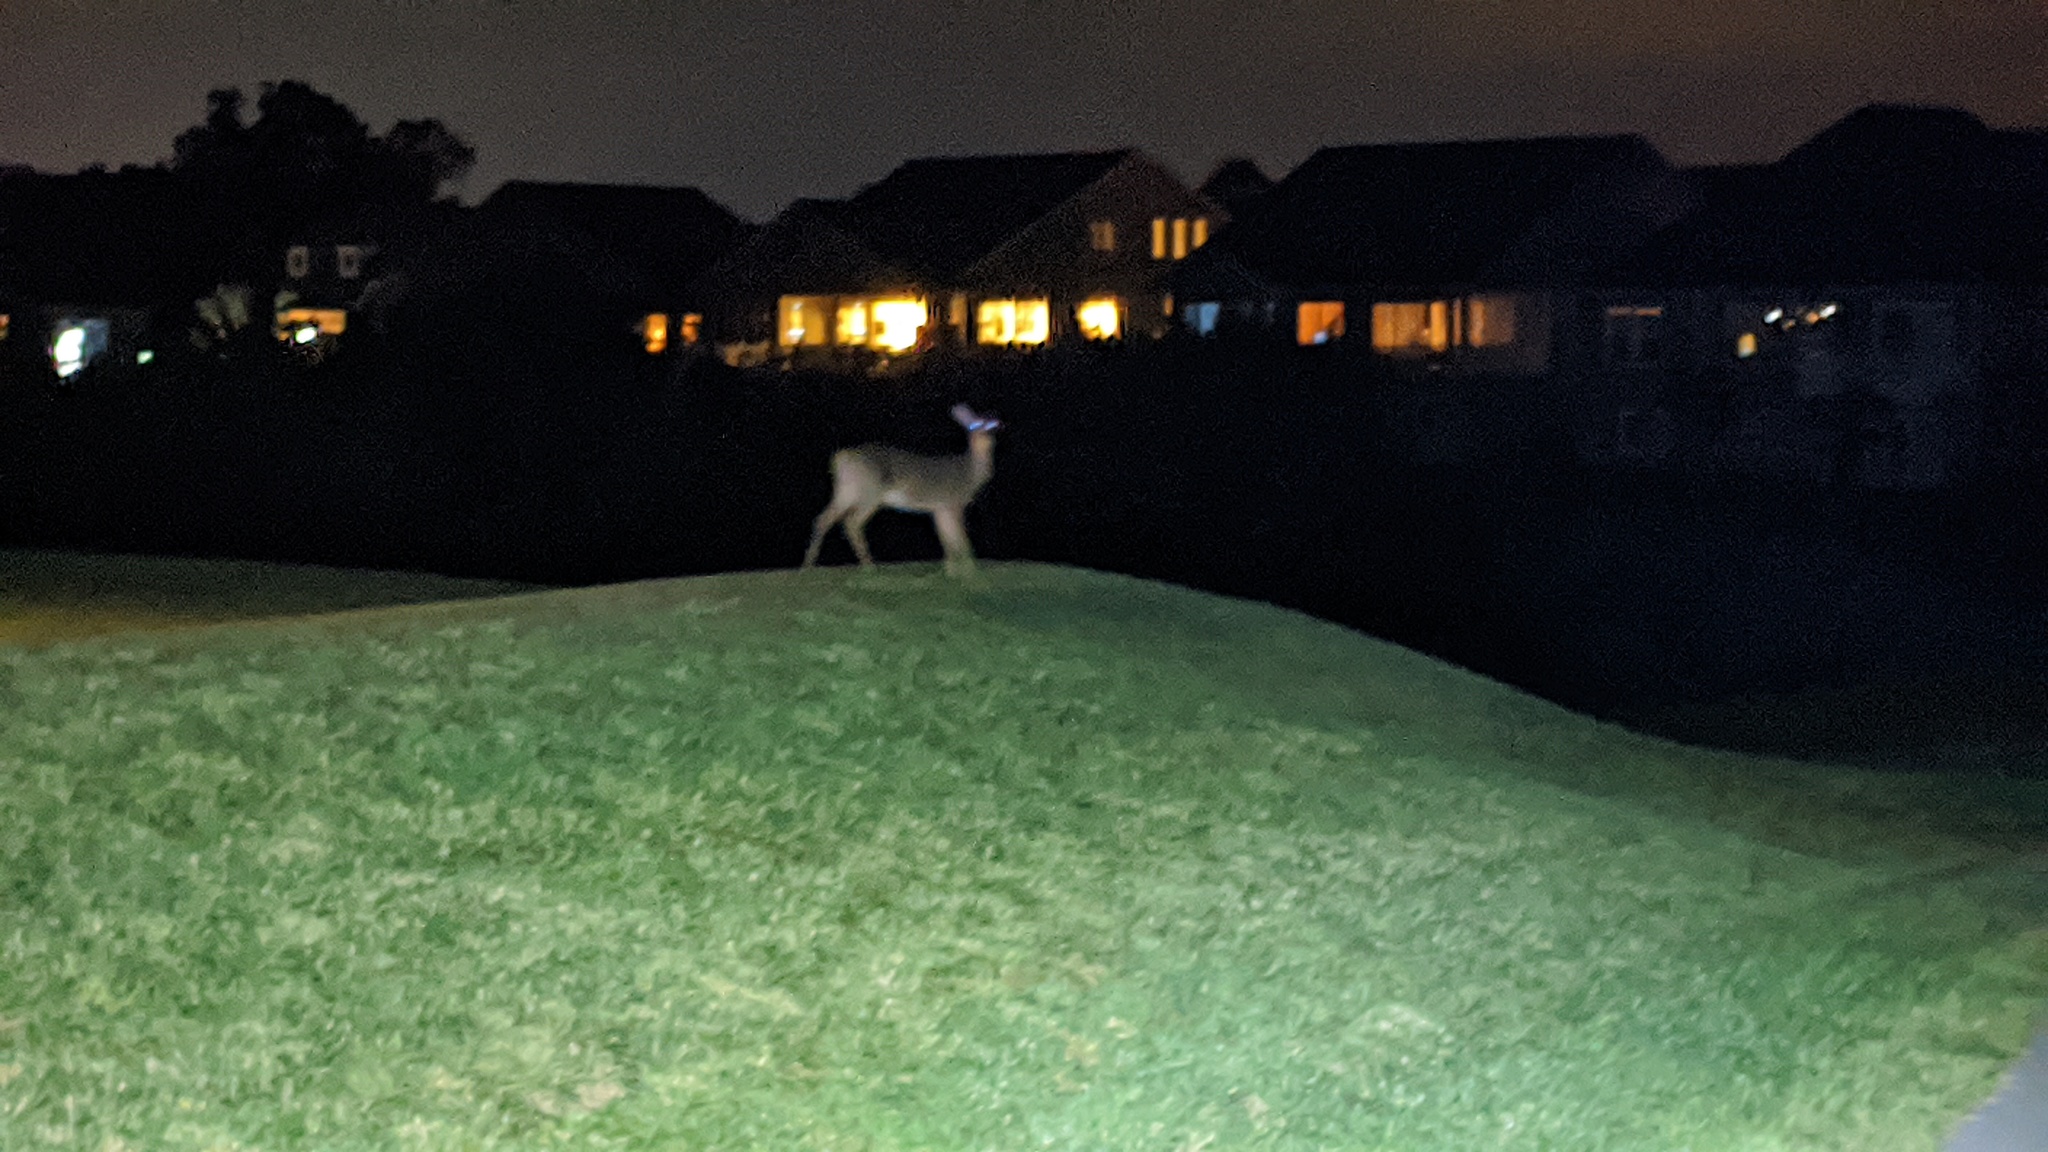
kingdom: Animalia
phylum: Chordata
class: Mammalia
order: Artiodactyla
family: Cervidae
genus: Odocoileus
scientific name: Odocoileus virginianus
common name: White-tailed deer
